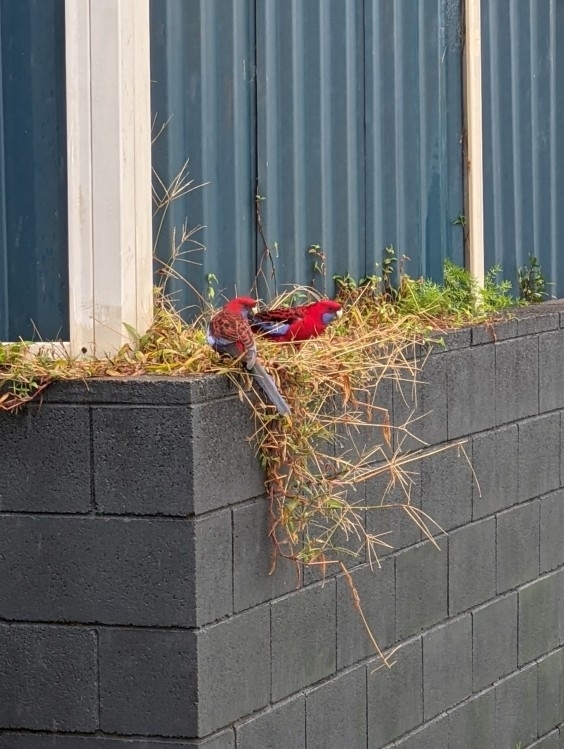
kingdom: Animalia
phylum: Chordata
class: Aves
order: Psittaciformes
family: Psittacidae
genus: Platycercus
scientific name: Platycercus elegans
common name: Crimson rosella
